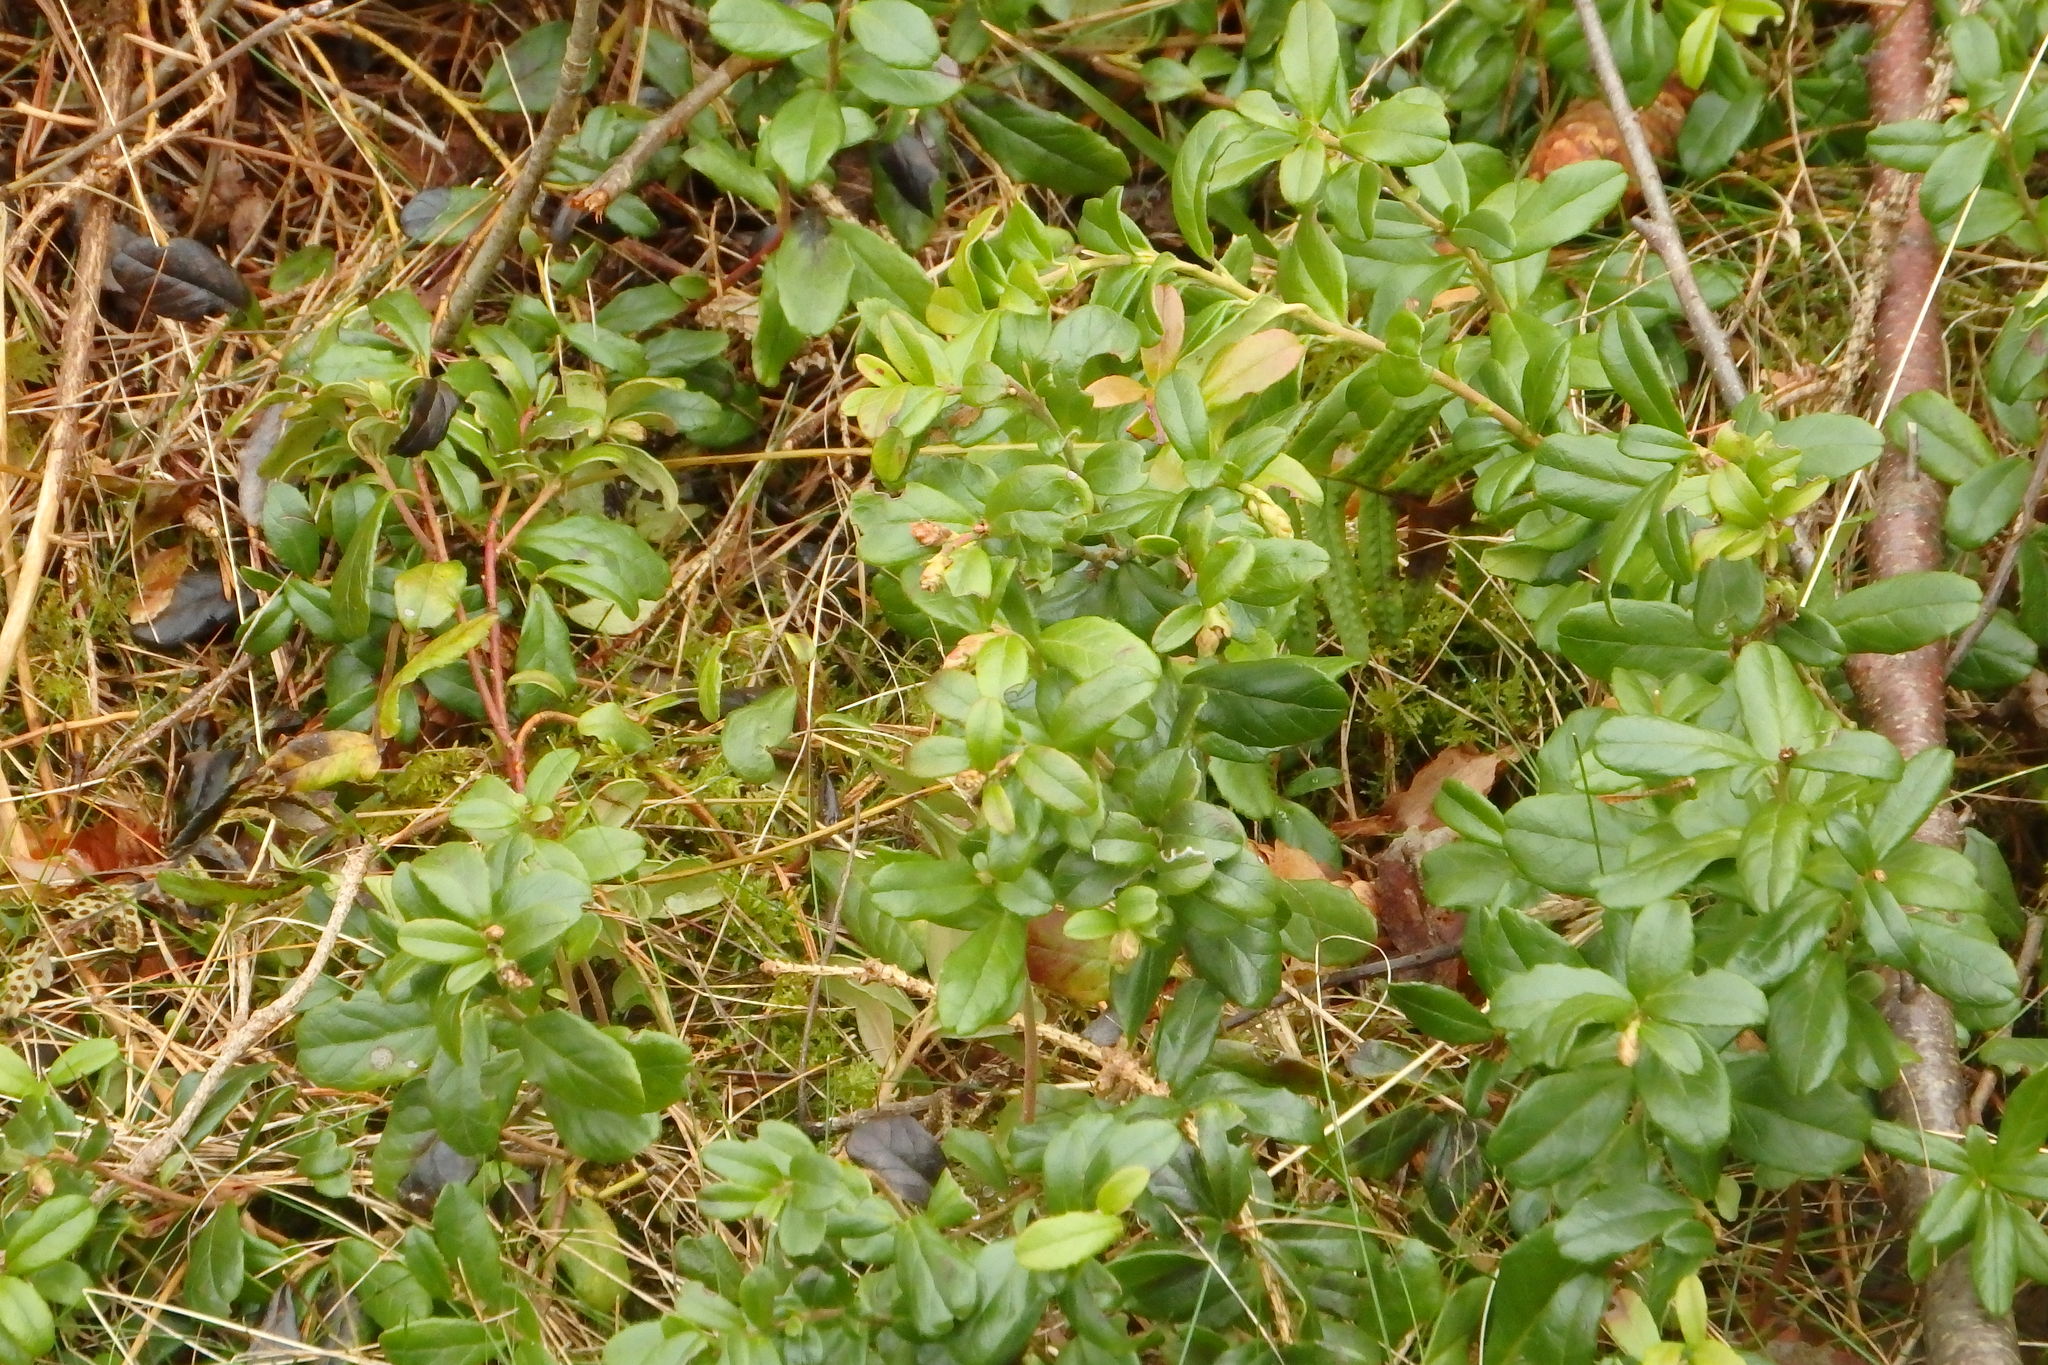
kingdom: Plantae
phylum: Tracheophyta
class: Magnoliopsida
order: Ericales
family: Ericaceae
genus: Vaccinium
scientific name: Vaccinium vitis-idaea
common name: Cowberry
